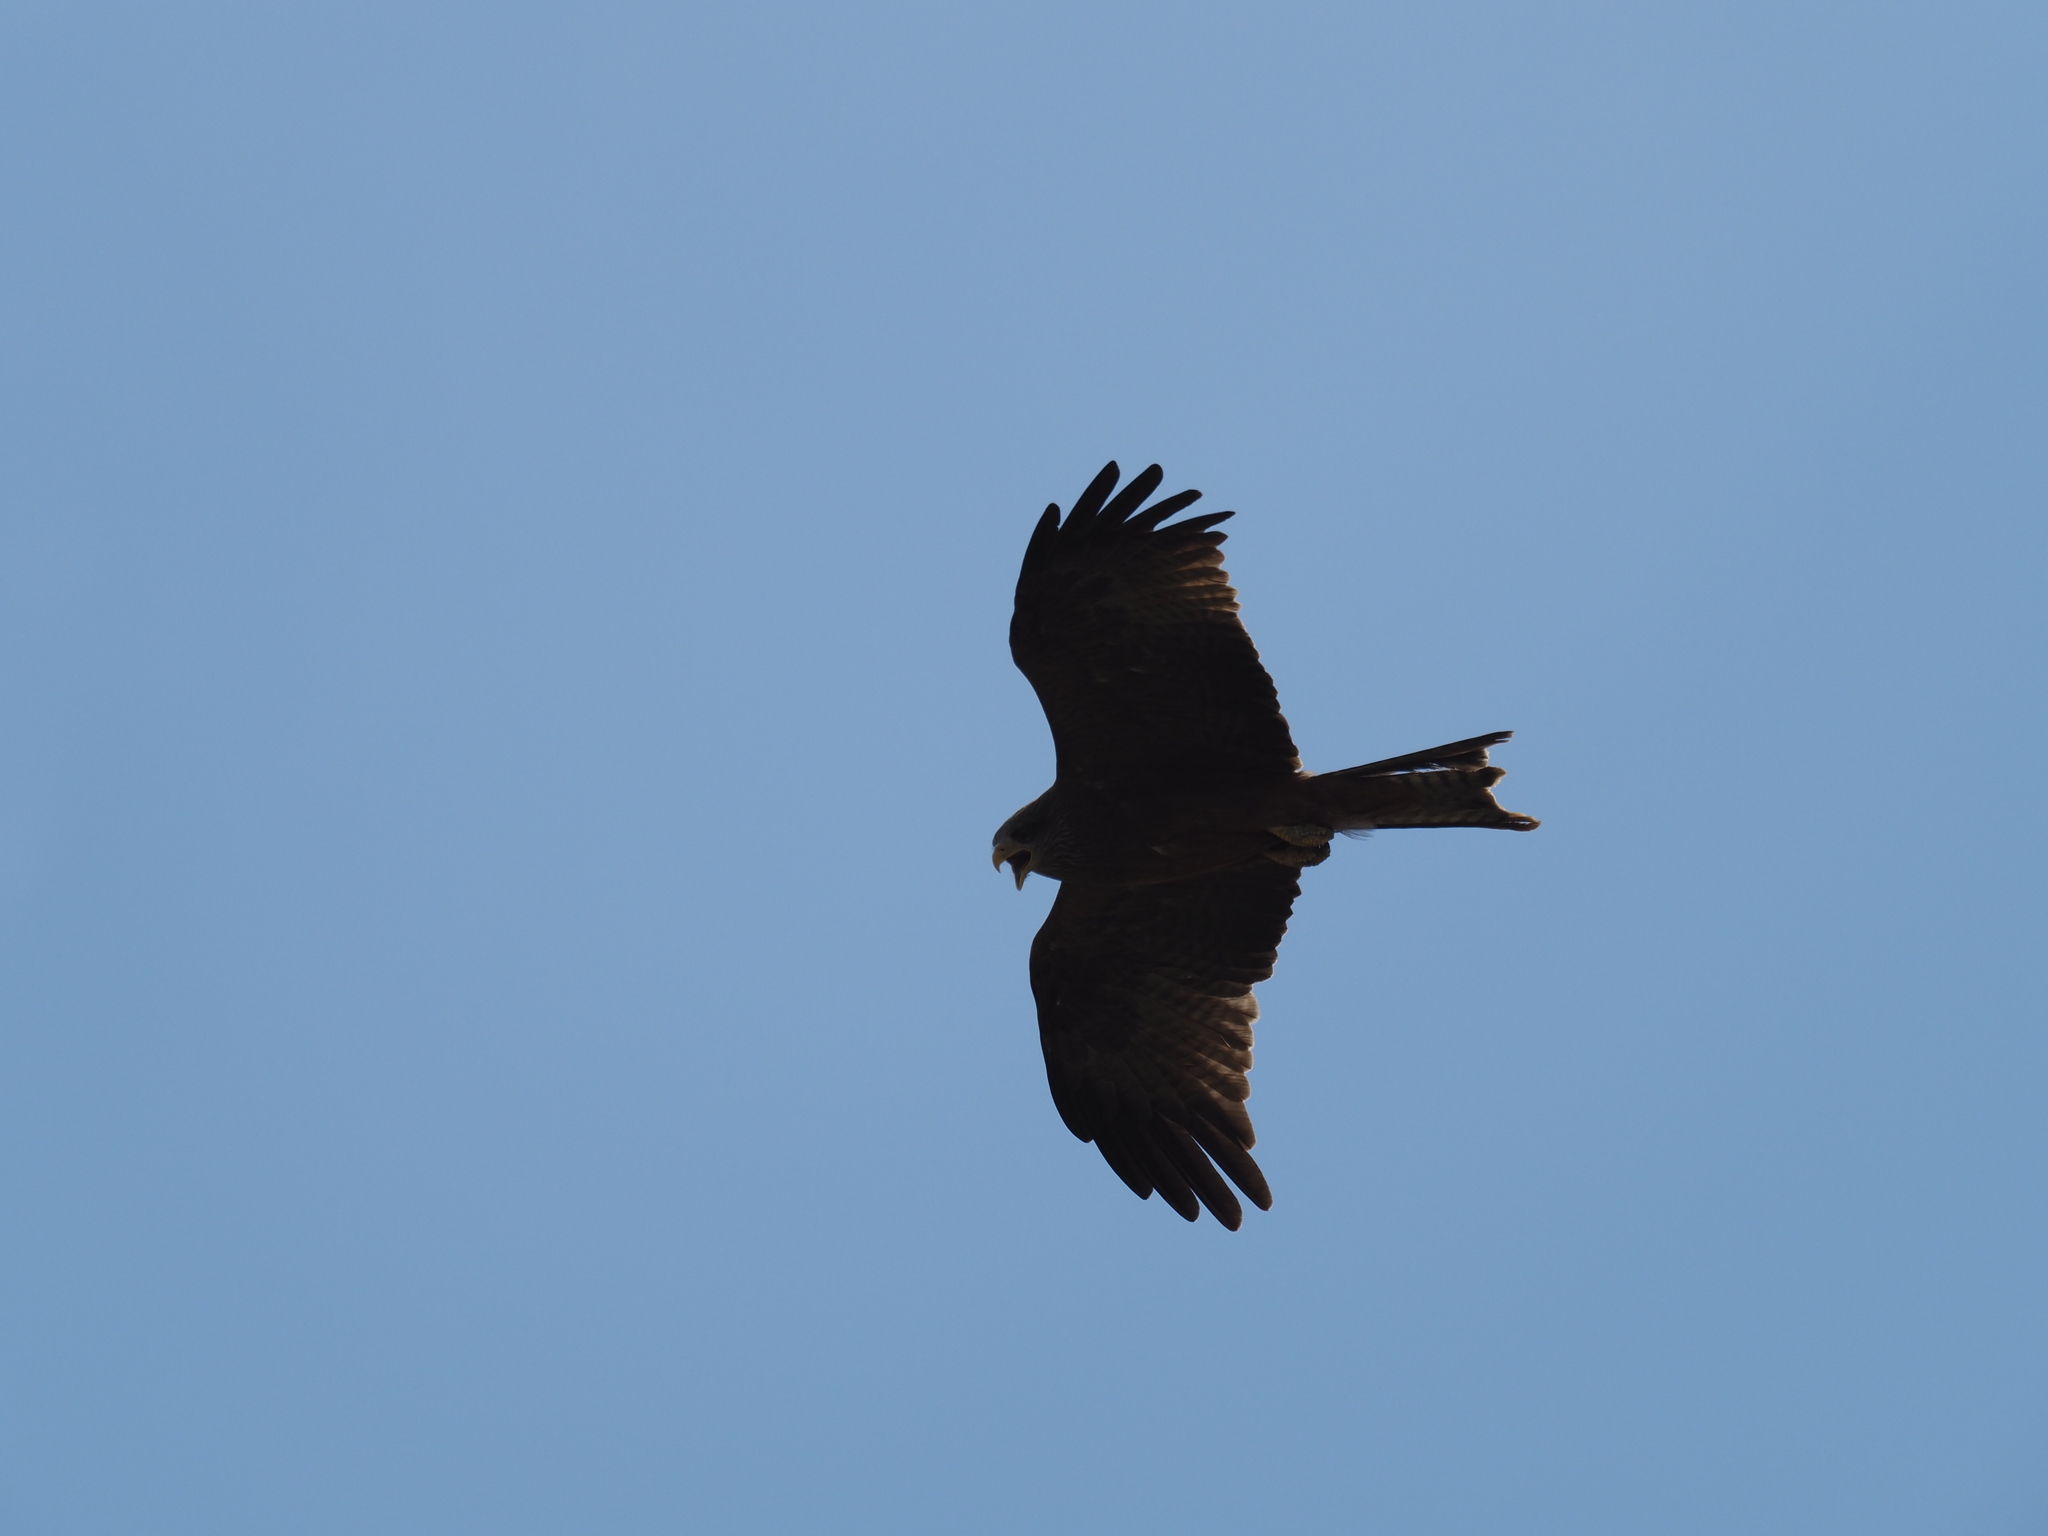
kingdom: Animalia
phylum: Chordata
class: Aves
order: Accipitriformes
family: Accipitridae
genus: Milvus
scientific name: Milvus migrans
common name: Black kite
